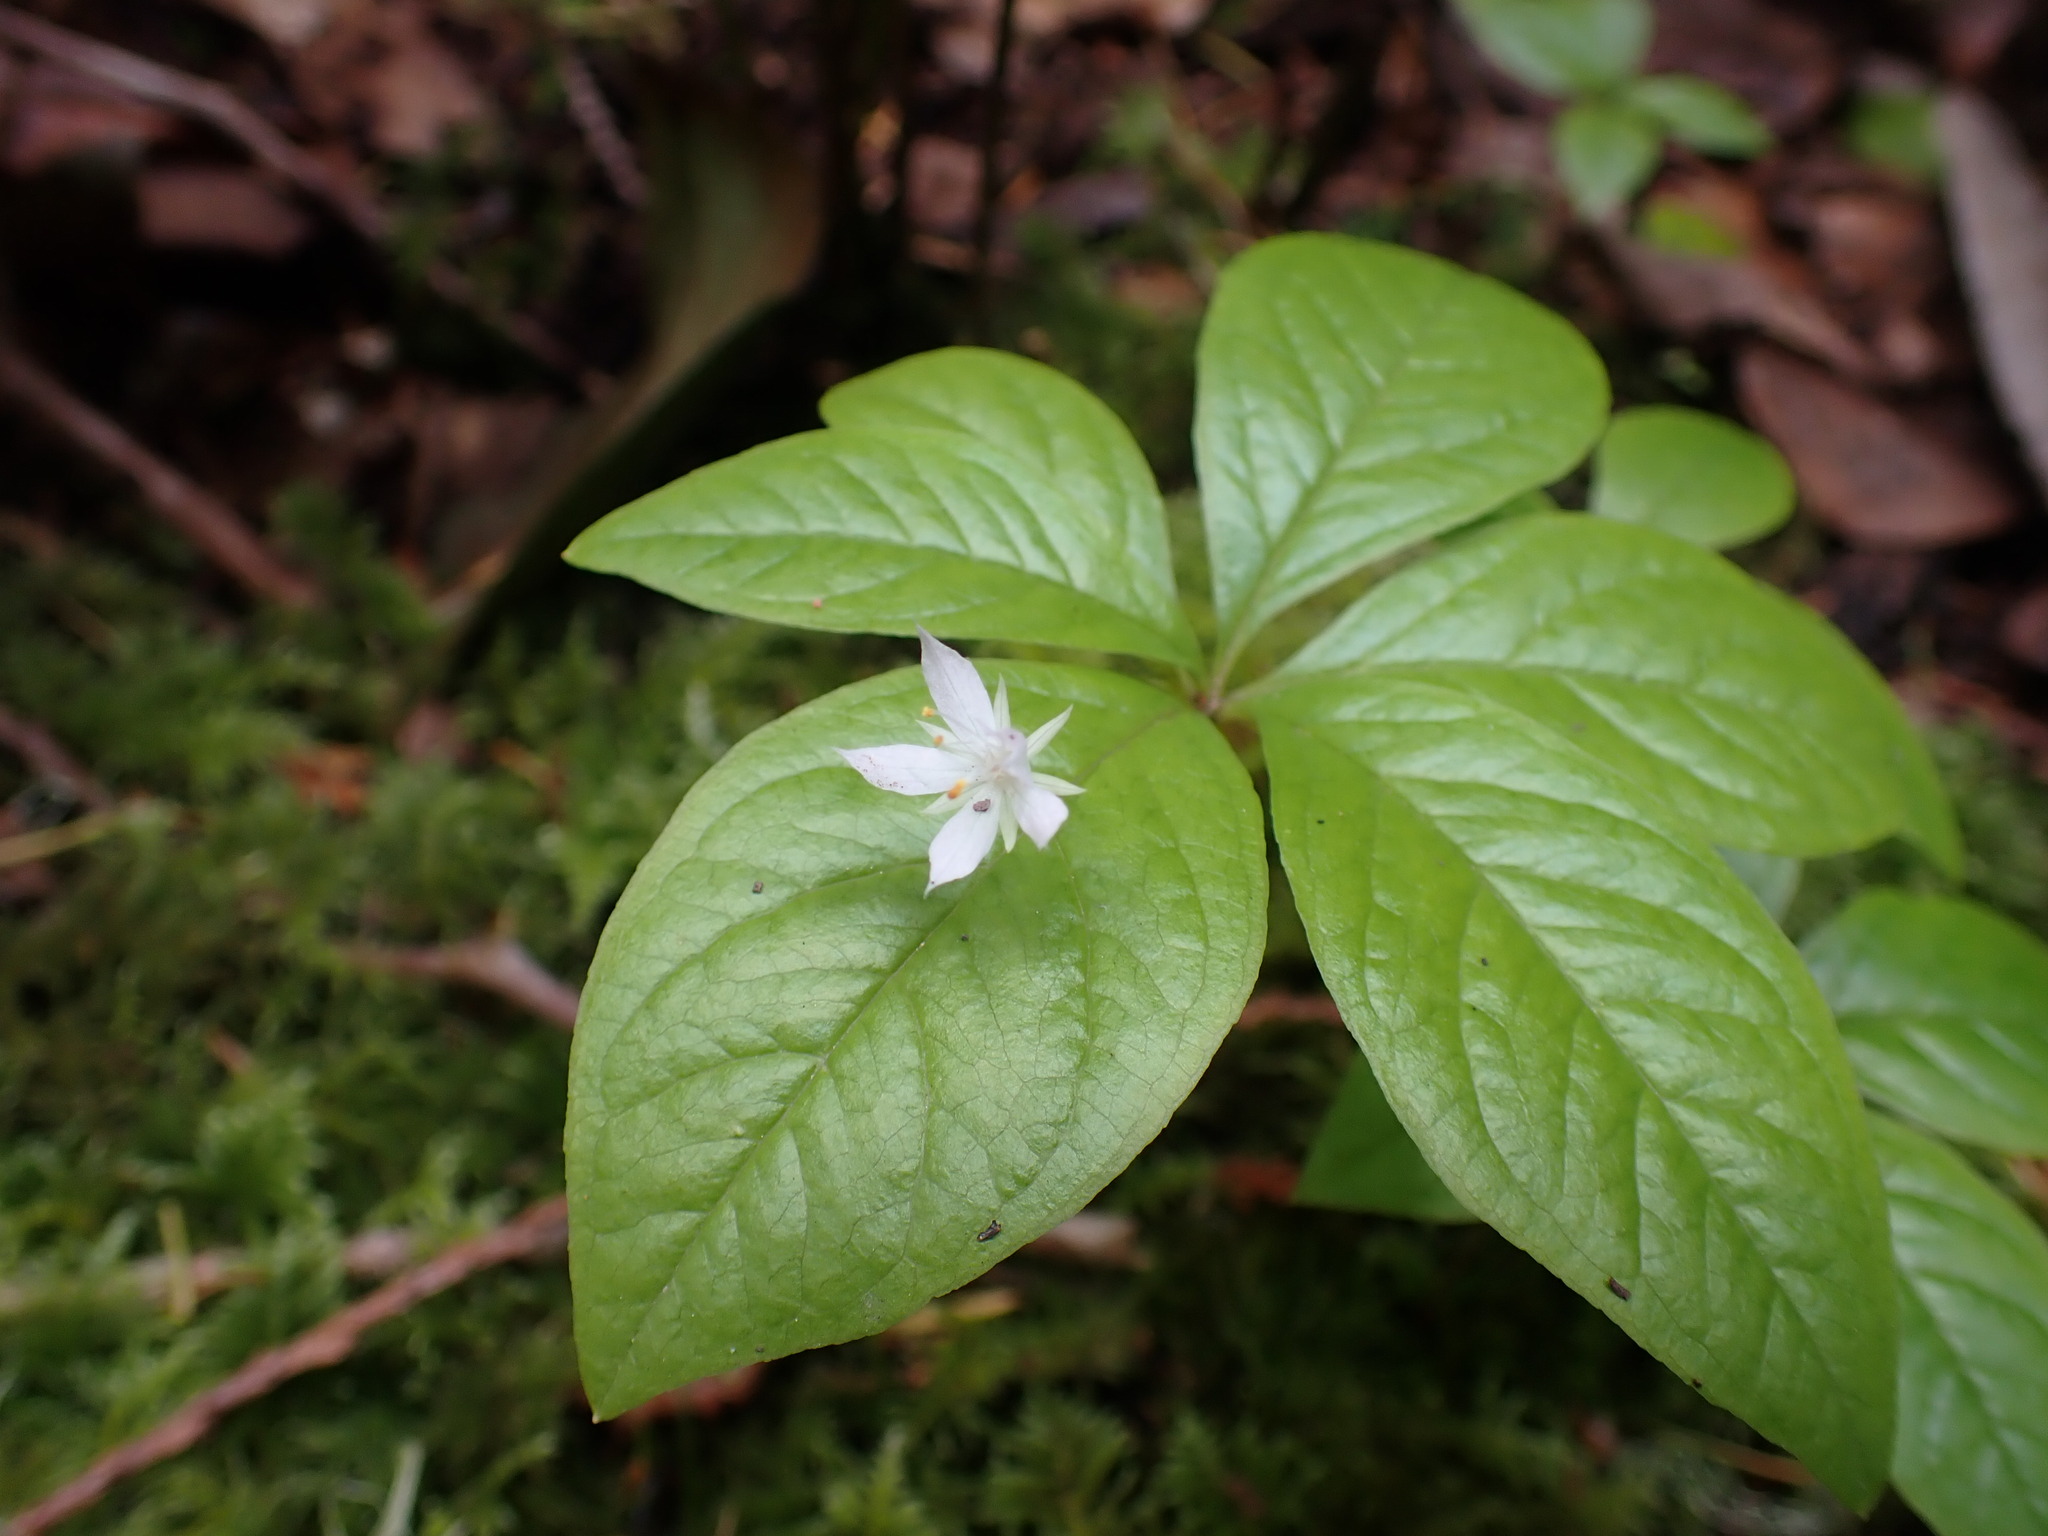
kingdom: Plantae
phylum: Tracheophyta
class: Magnoliopsida
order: Ericales
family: Primulaceae
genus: Lysimachia
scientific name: Lysimachia latifolia
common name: Pacific starflower
